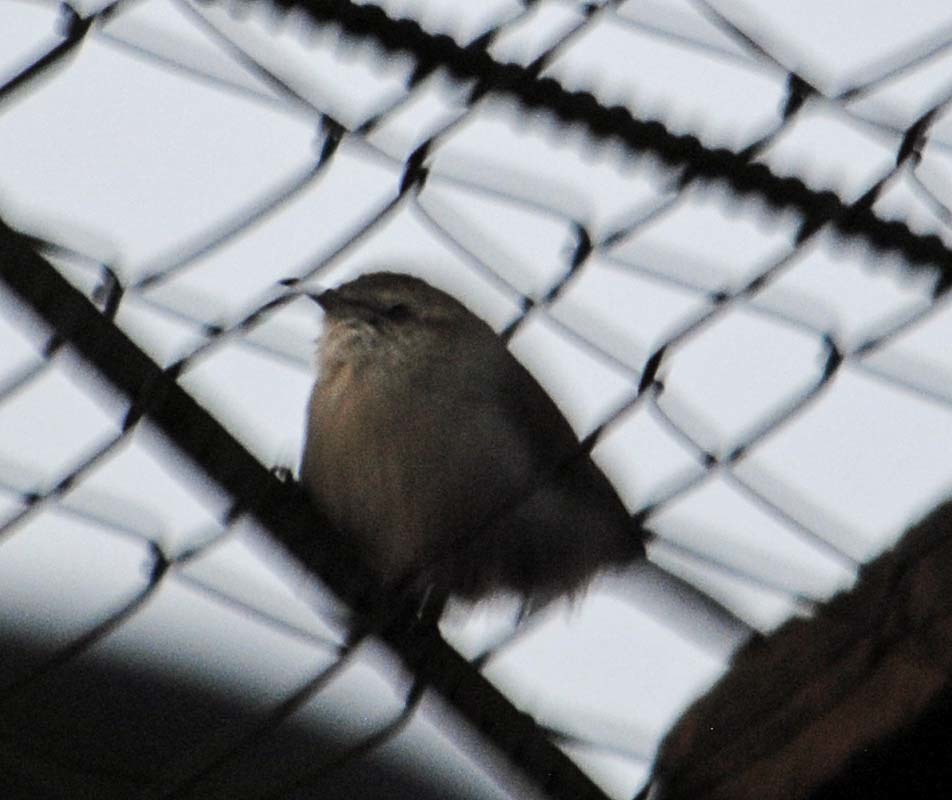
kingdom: Animalia
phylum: Chordata
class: Aves
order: Passeriformes
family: Troglodytidae
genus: Thryomanes
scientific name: Thryomanes bewickii
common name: Bewick's wren
